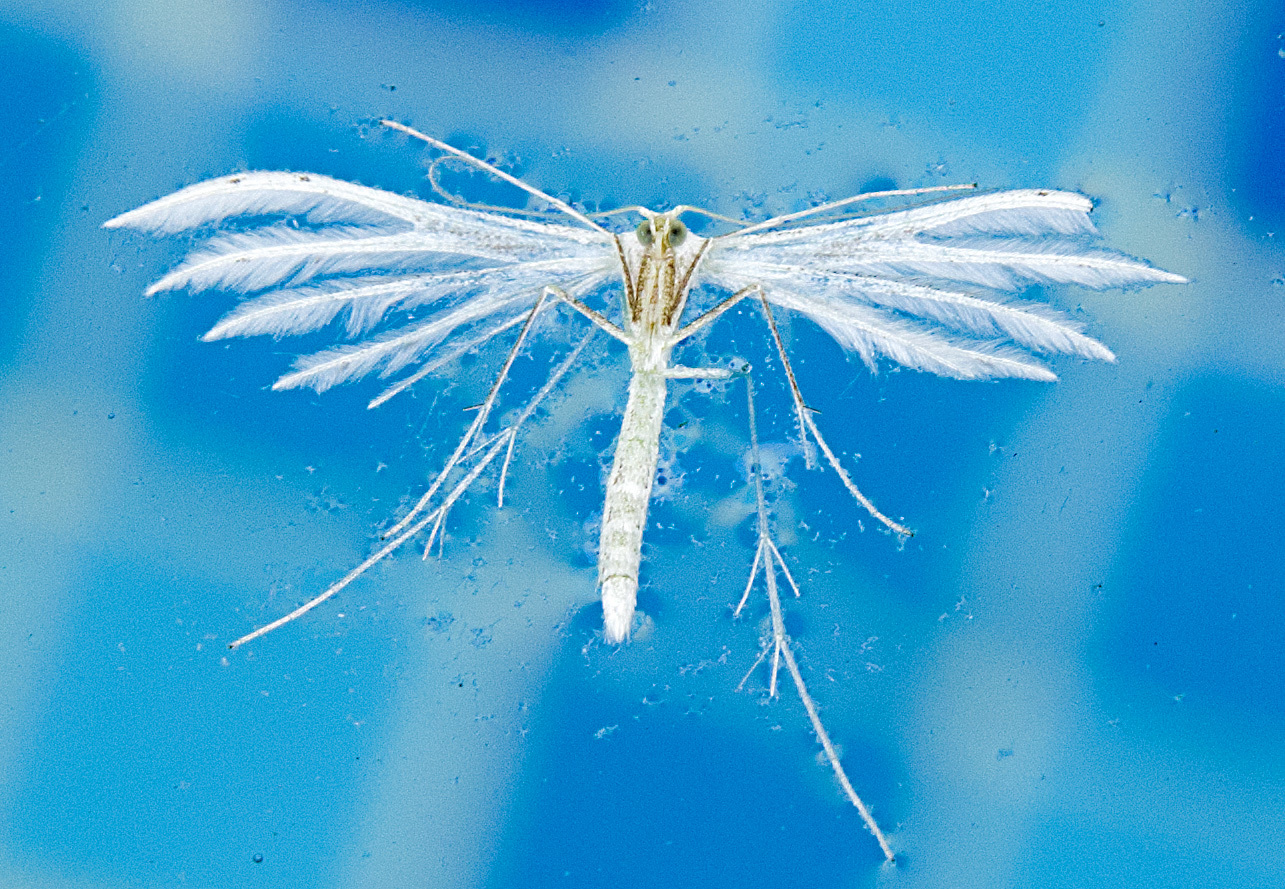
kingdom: Animalia
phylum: Arthropoda
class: Insecta
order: Lepidoptera
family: Pterophoridae
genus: Pterophorus
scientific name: Pterophorus pentadactyla
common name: White plume moth
